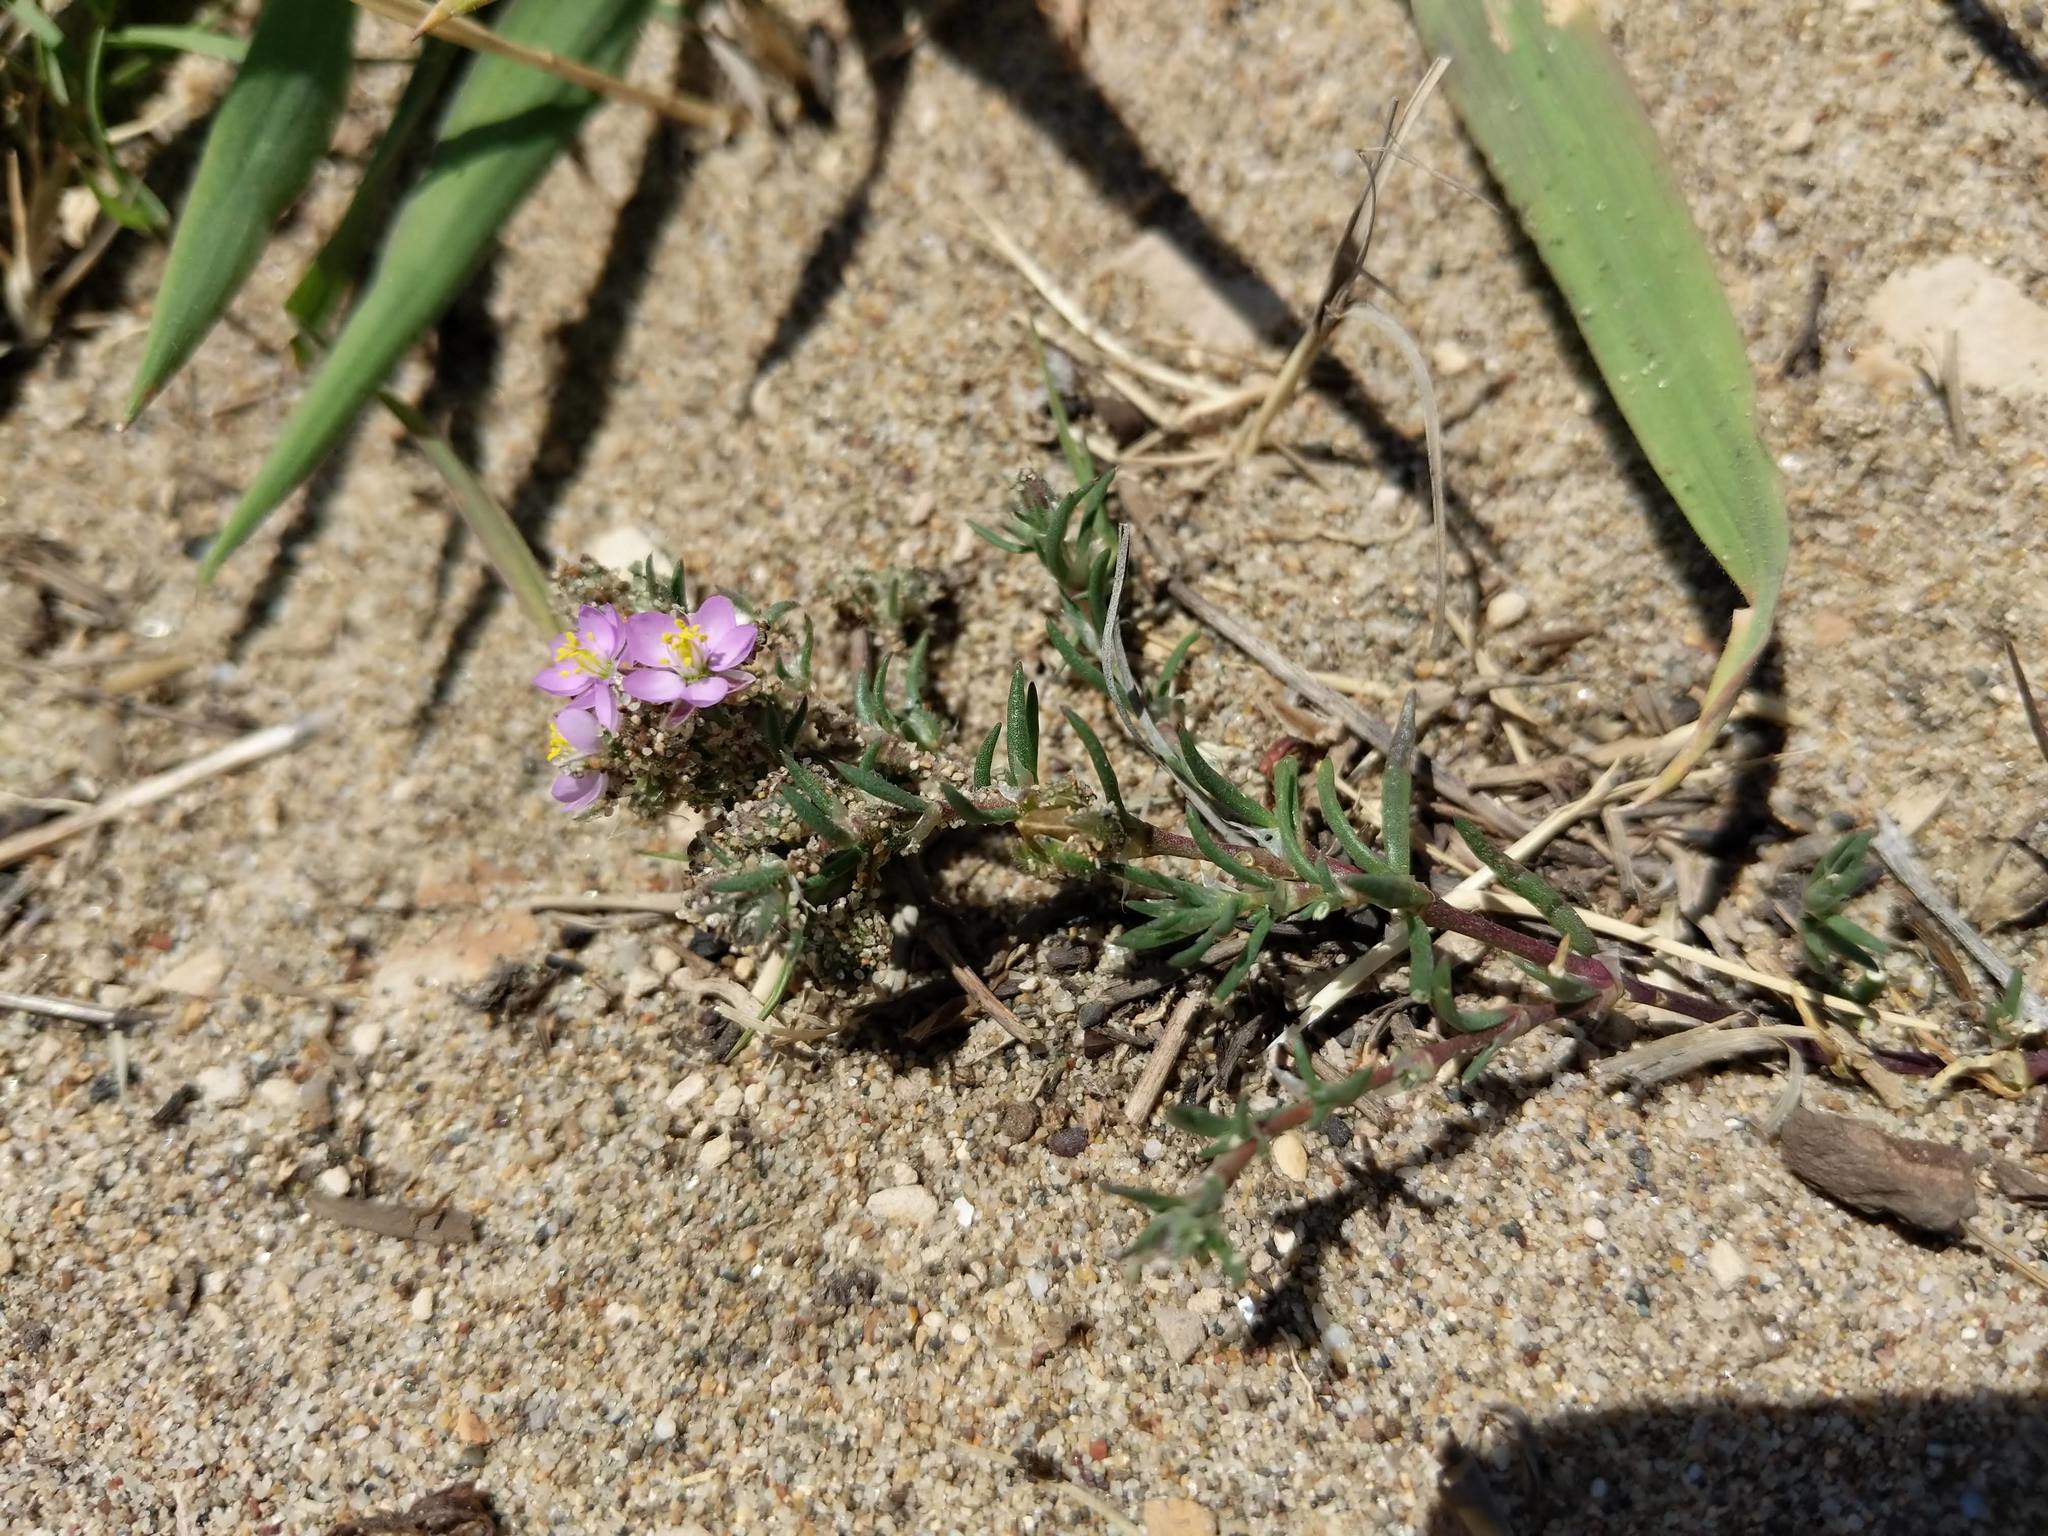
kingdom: Plantae
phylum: Tracheophyta
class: Magnoliopsida
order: Caryophyllales
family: Caryophyllaceae
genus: Spergularia
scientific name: Spergularia macrotheca
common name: Beach sand-spurrey
